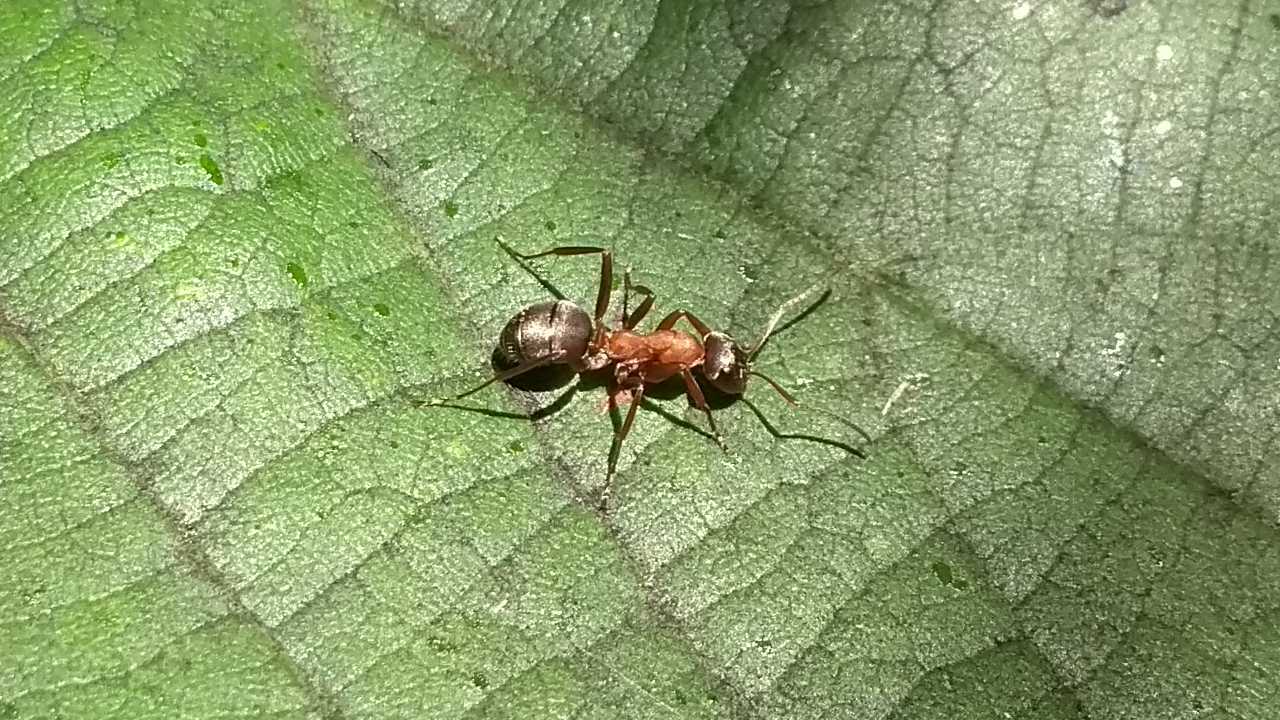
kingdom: Animalia
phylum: Arthropoda
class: Insecta
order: Hymenoptera
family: Formicidae
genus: Formica
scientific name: Formica
